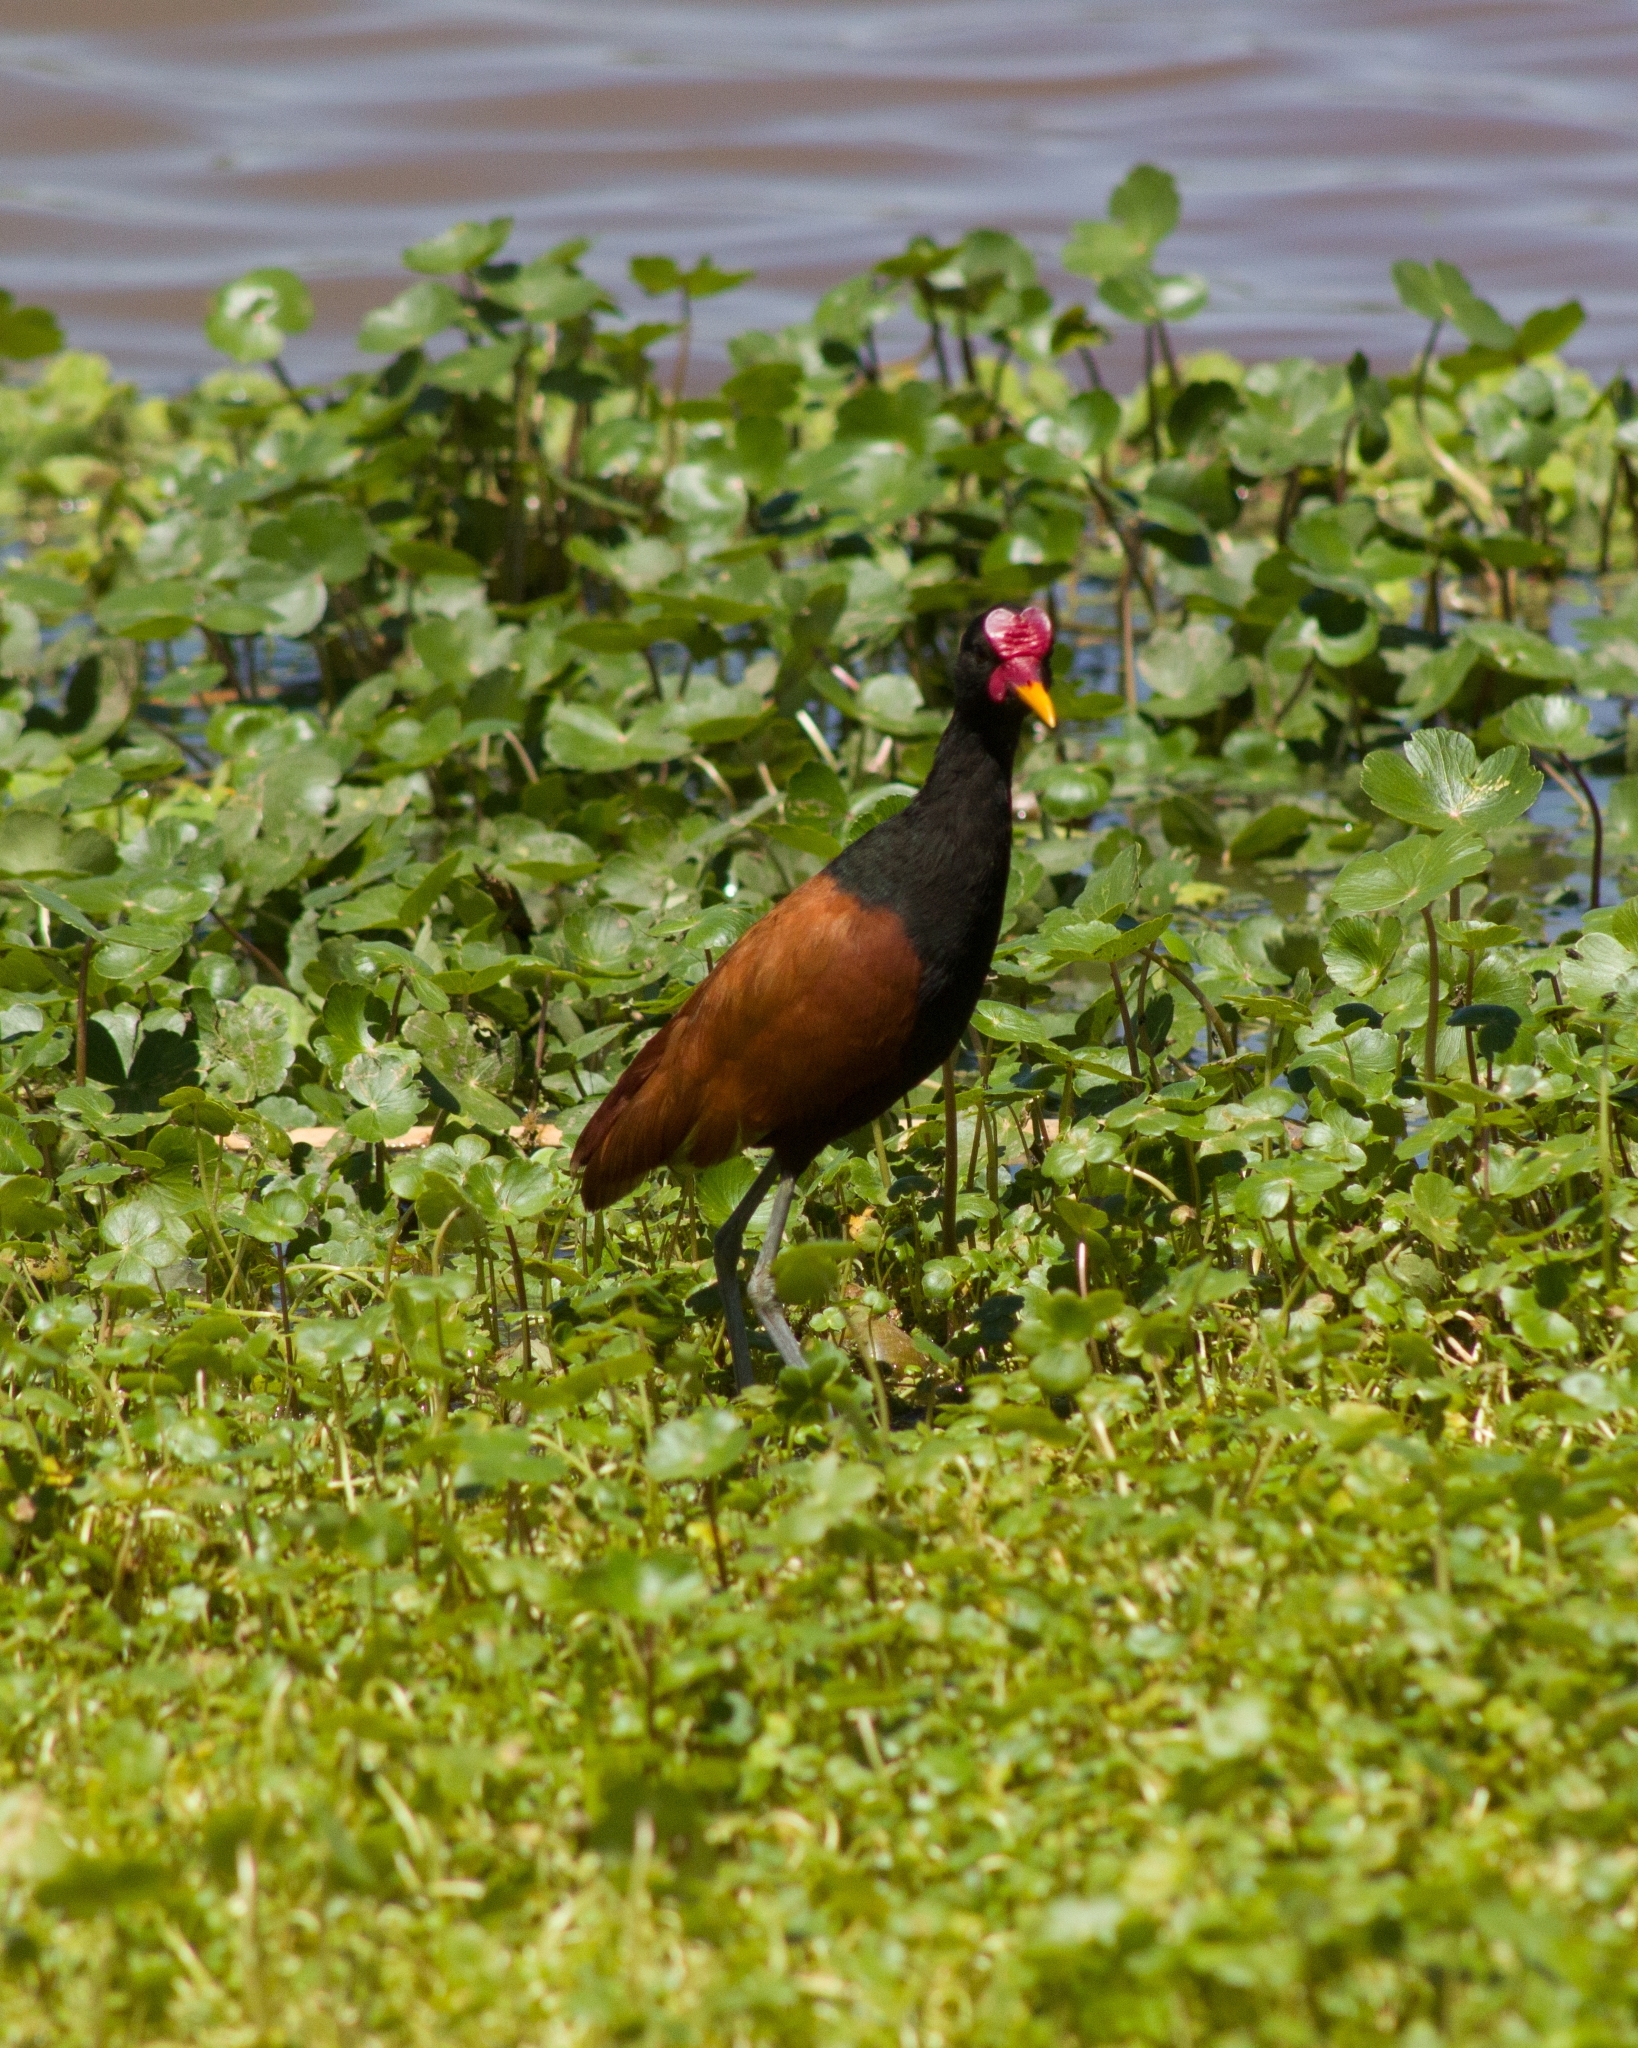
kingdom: Animalia
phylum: Chordata
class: Aves
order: Charadriiformes
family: Jacanidae
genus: Jacana
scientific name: Jacana jacana
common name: Wattled jacana
